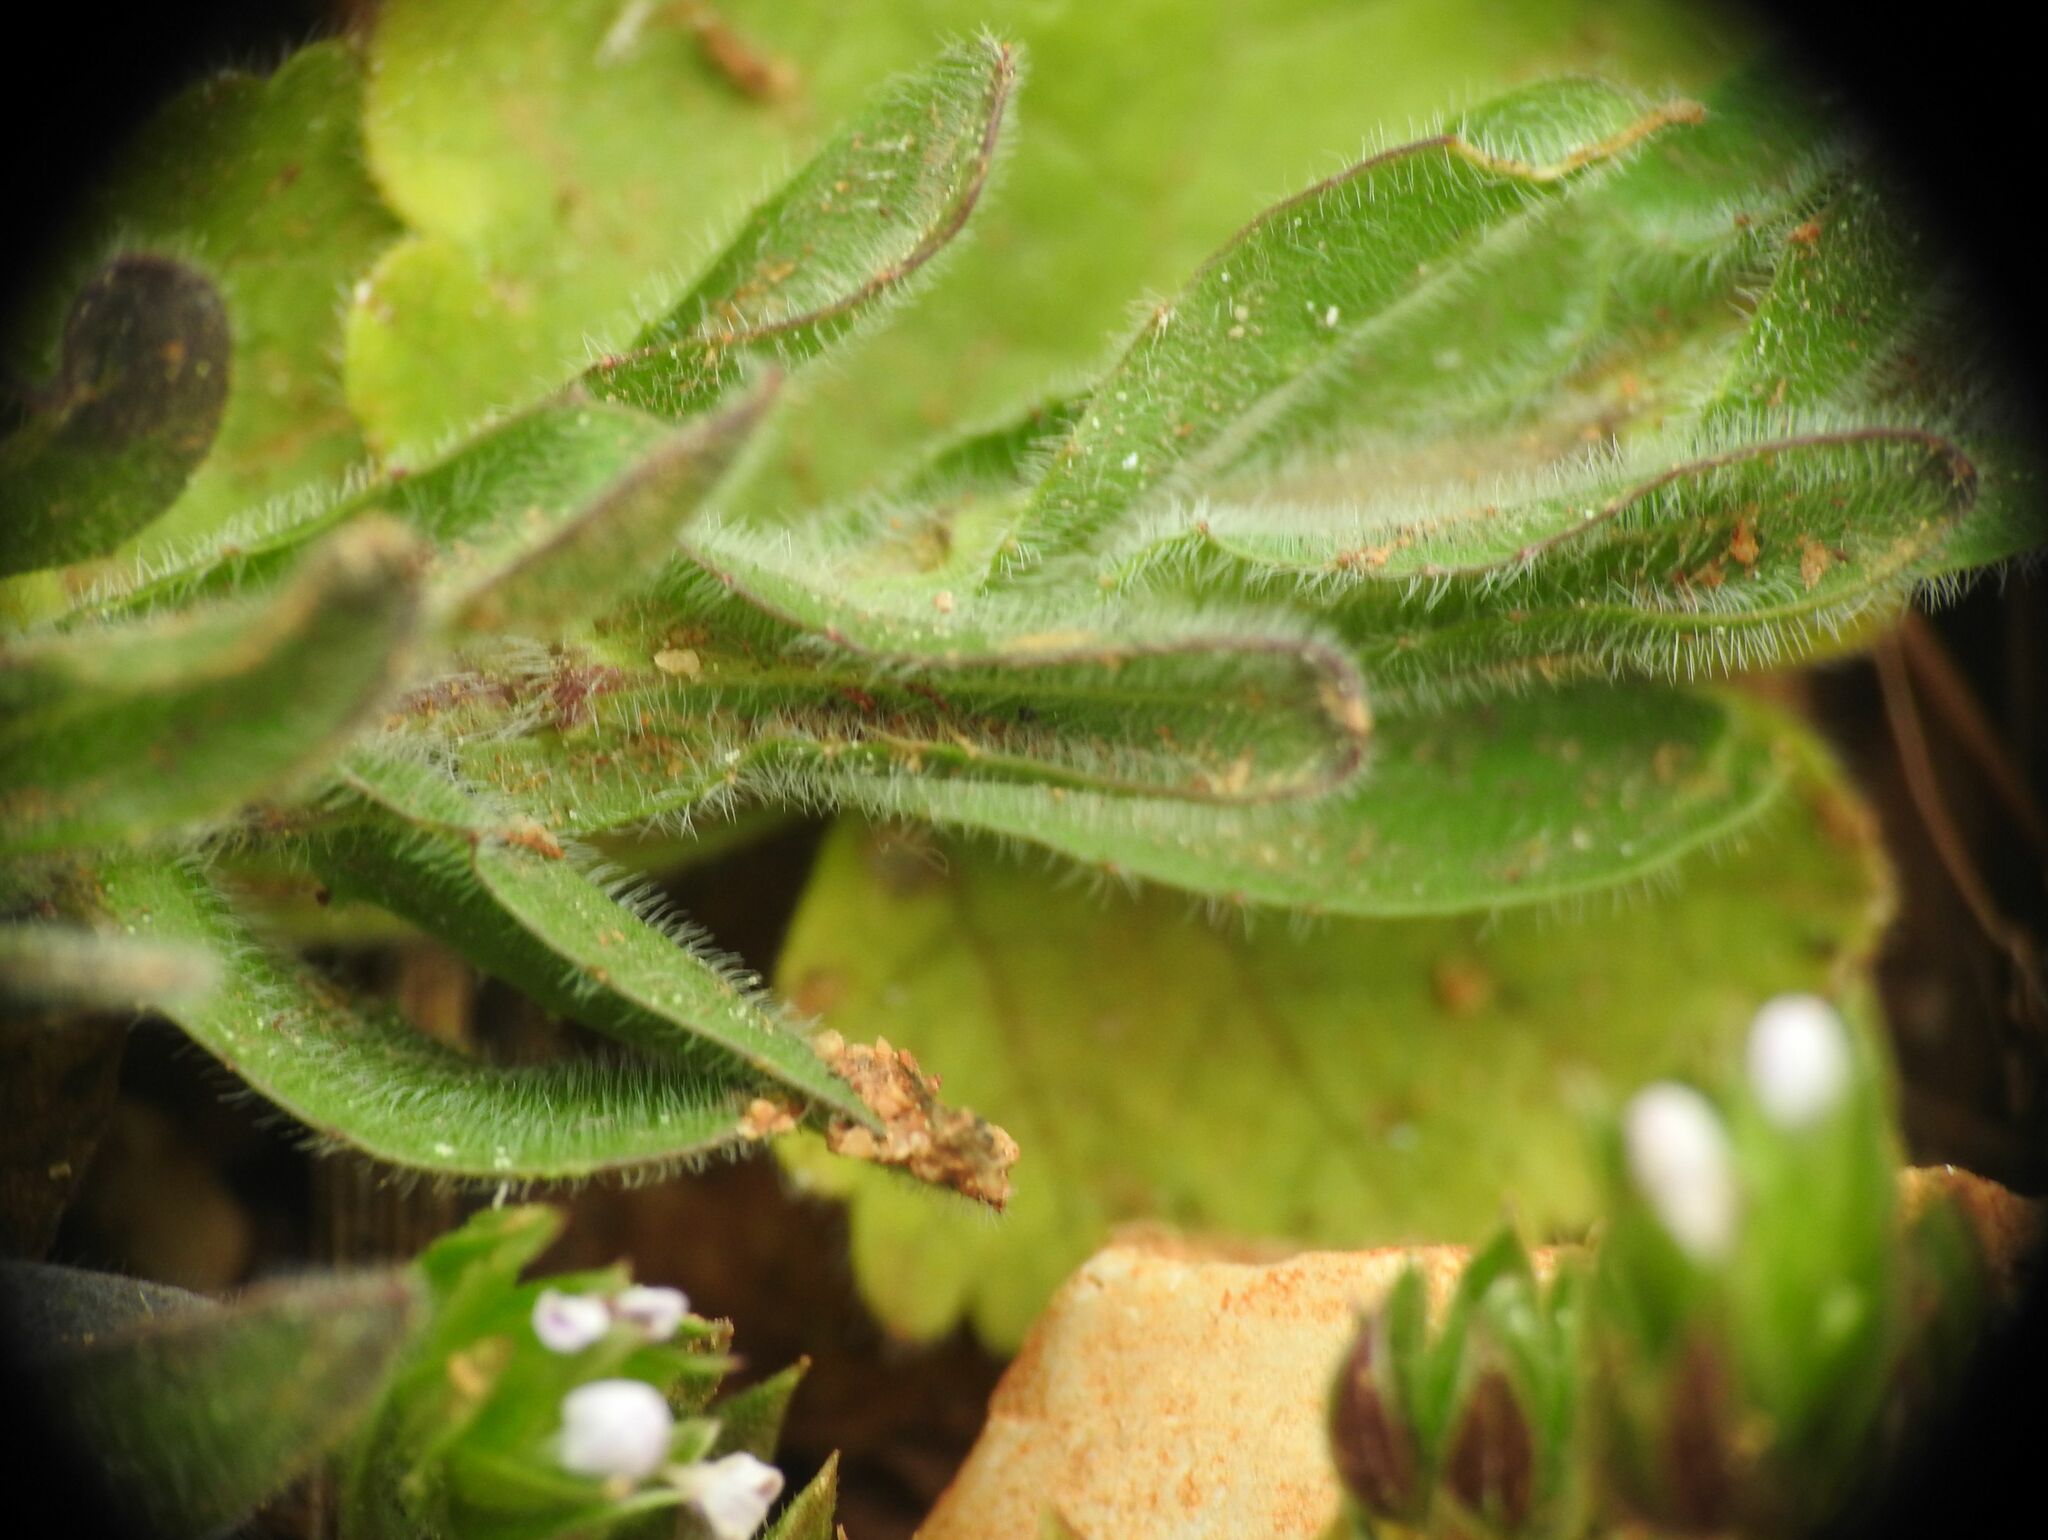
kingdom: Plantae
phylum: Tracheophyta
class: Magnoliopsida
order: Brassicales
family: Brassicaceae
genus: Lepidium
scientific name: Lepidium hirtum
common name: Mediterranean pepperweed
